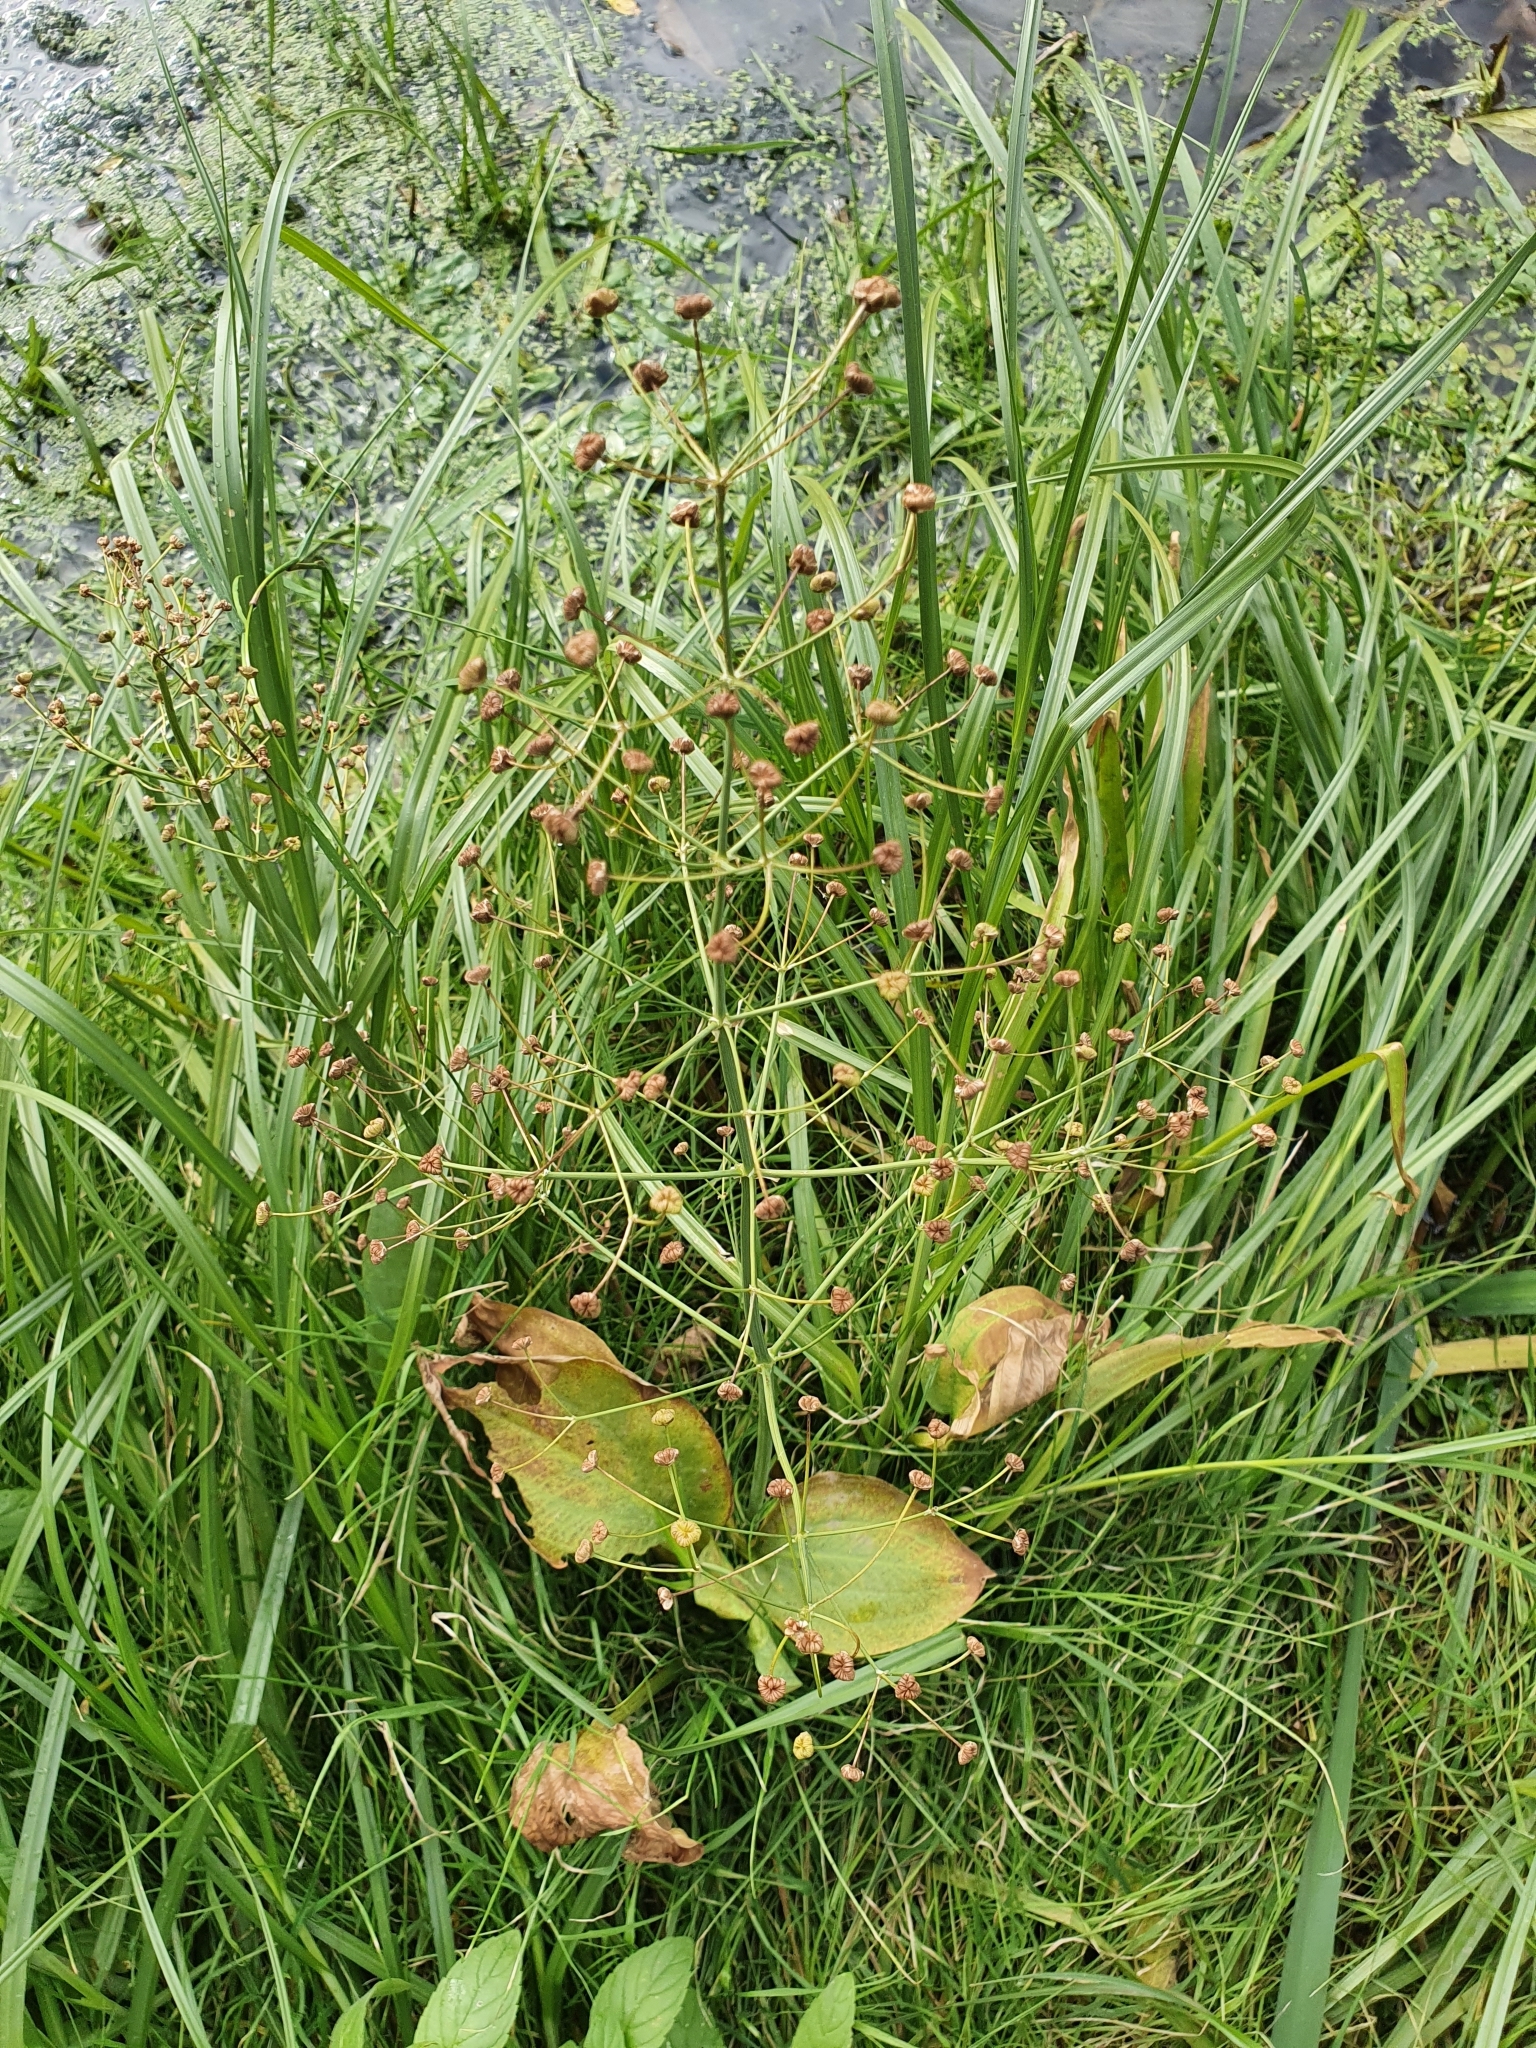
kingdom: Plantae
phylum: Tracheophyta
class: Liliopsida
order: Alismatales
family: Alismataceae
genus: Alisma
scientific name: Alisma plantago-aquatica
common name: Water-plantain
